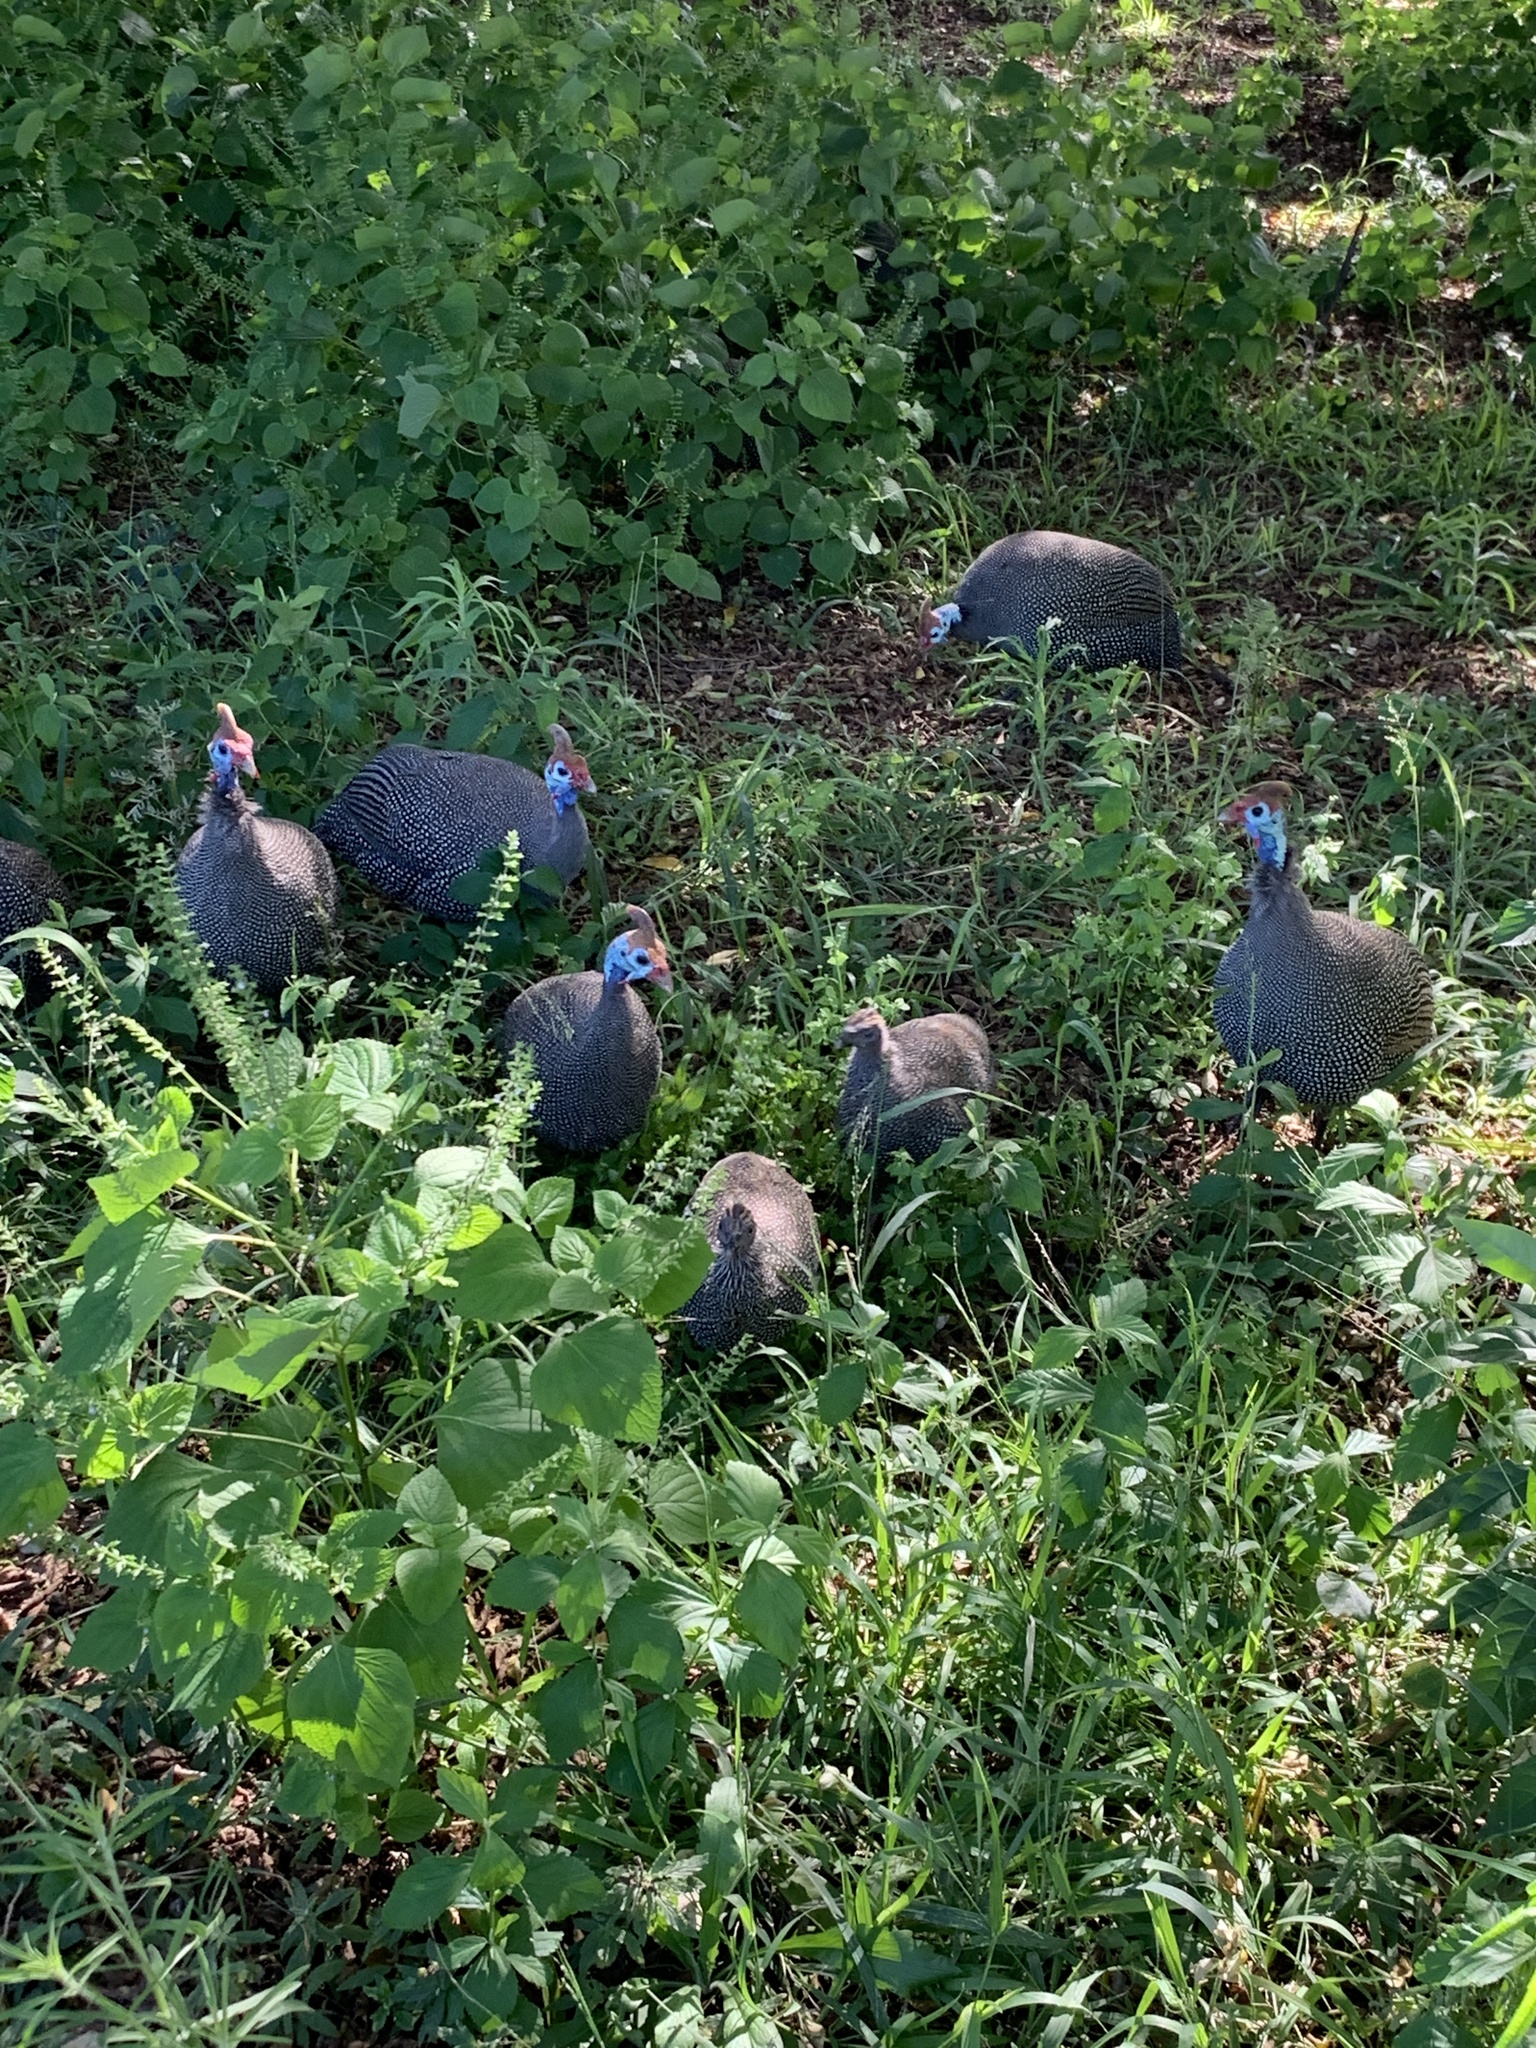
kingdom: Animalia
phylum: Chordata
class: Aves
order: Galliformes
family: Numididae
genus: Numida
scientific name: Numida meleagris
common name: Helmeted guineafowl
